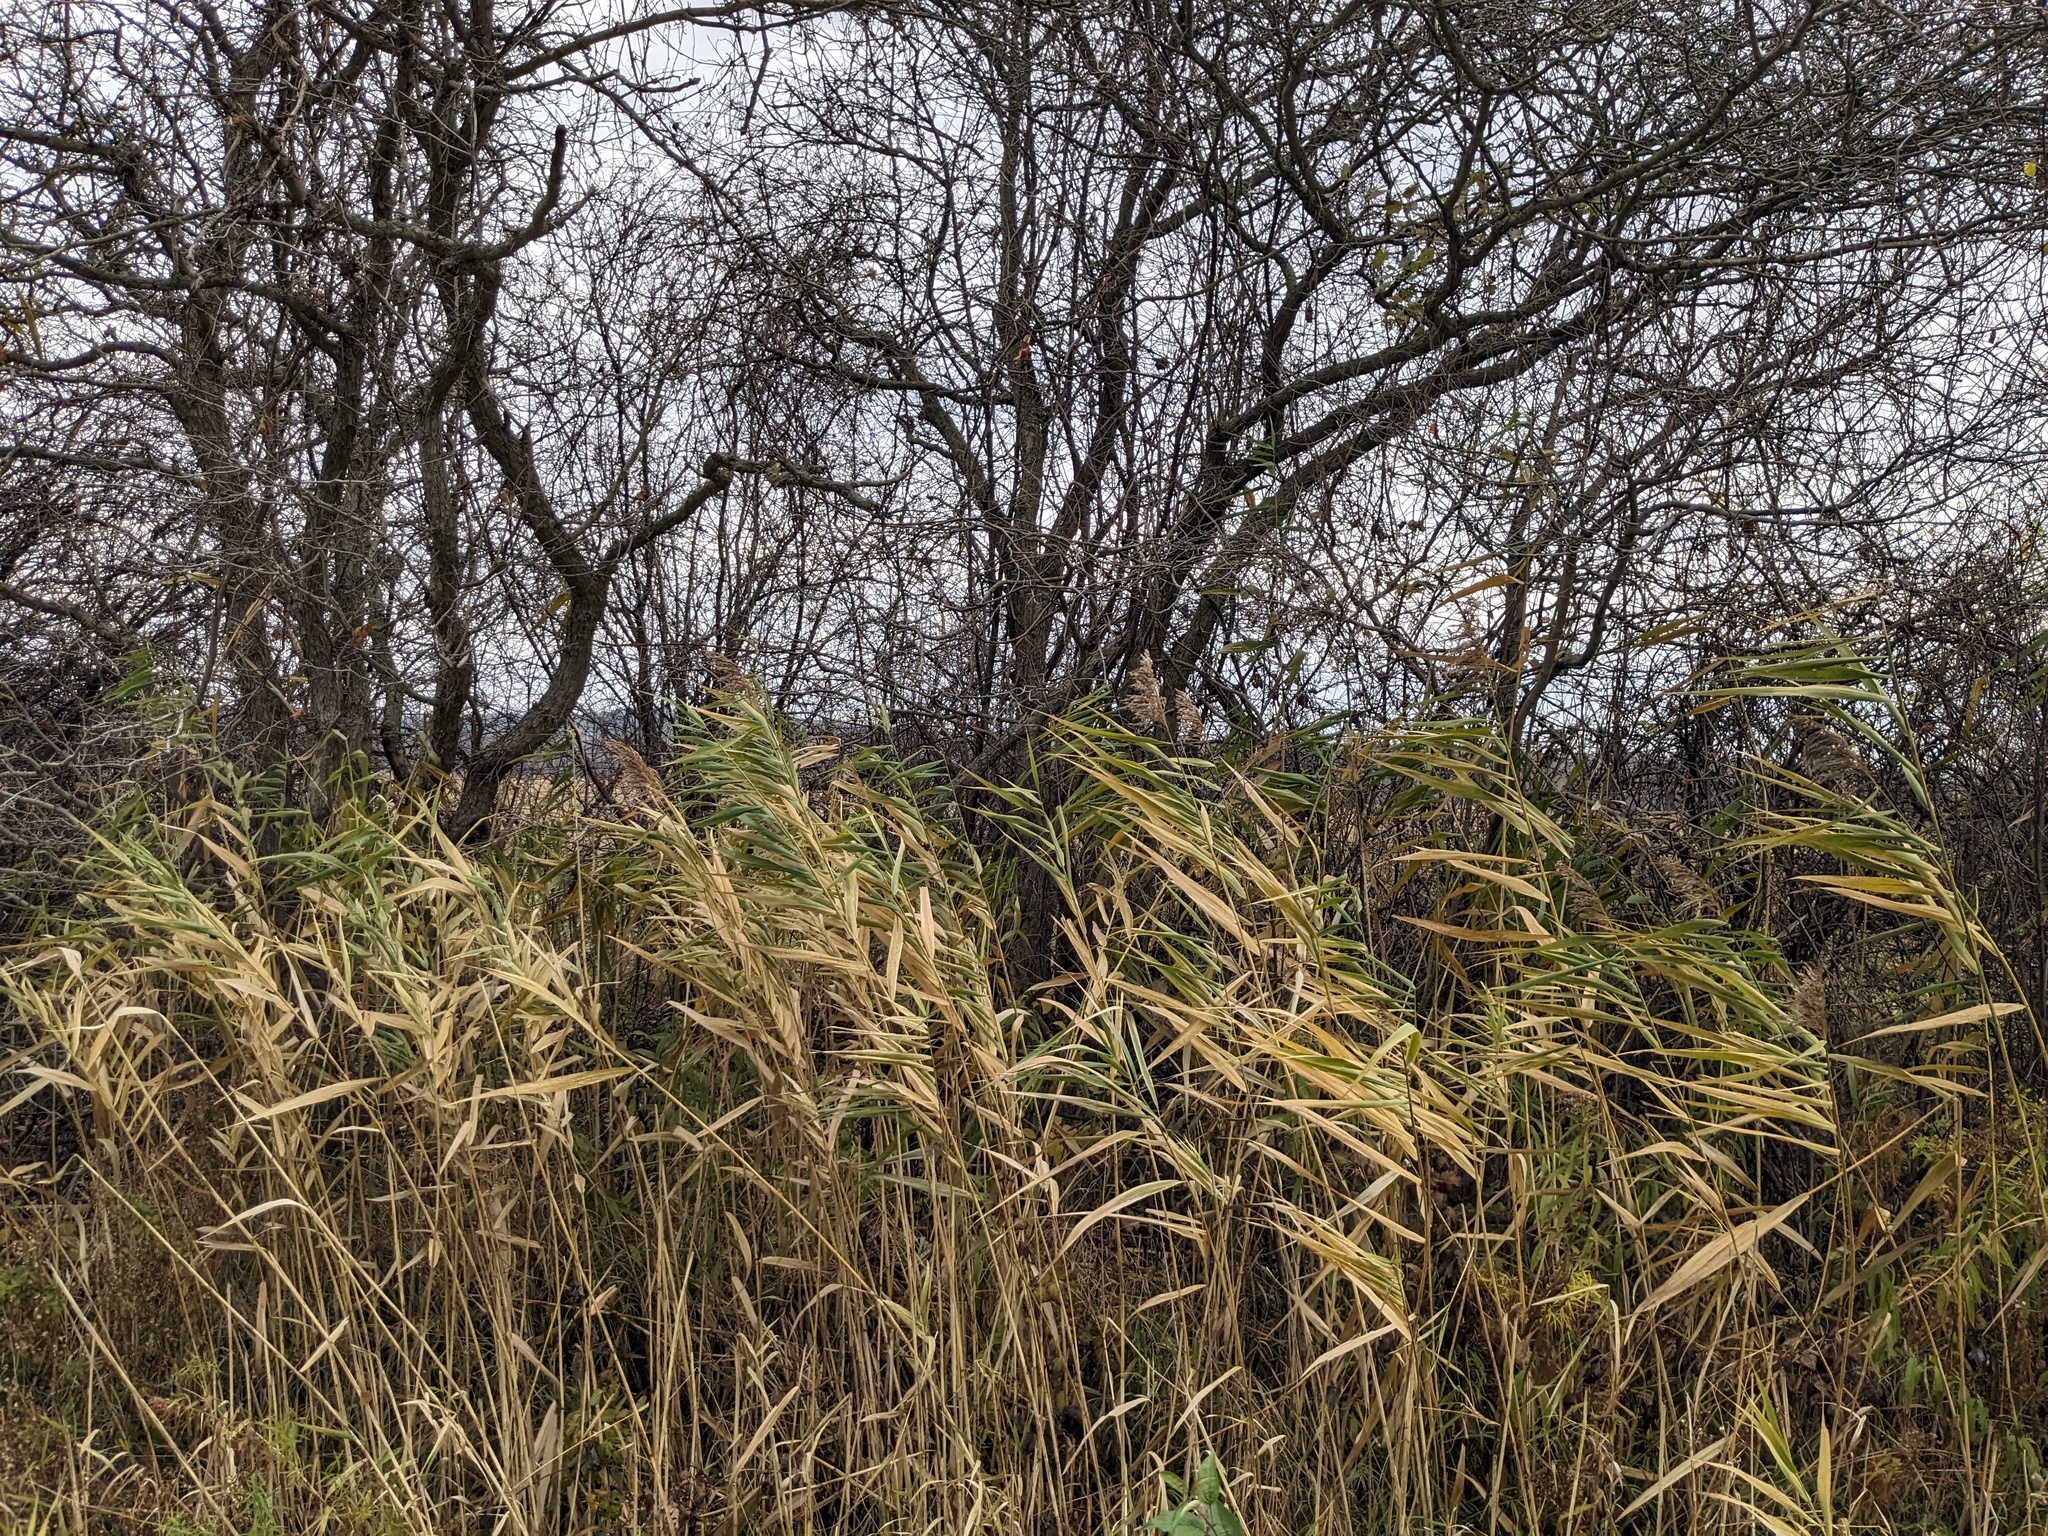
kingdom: Plantae
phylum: Tracheophyta
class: Liliopsida
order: Poales
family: Poaceae
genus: Phragmites
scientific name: Phragmites australis
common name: Common reed
